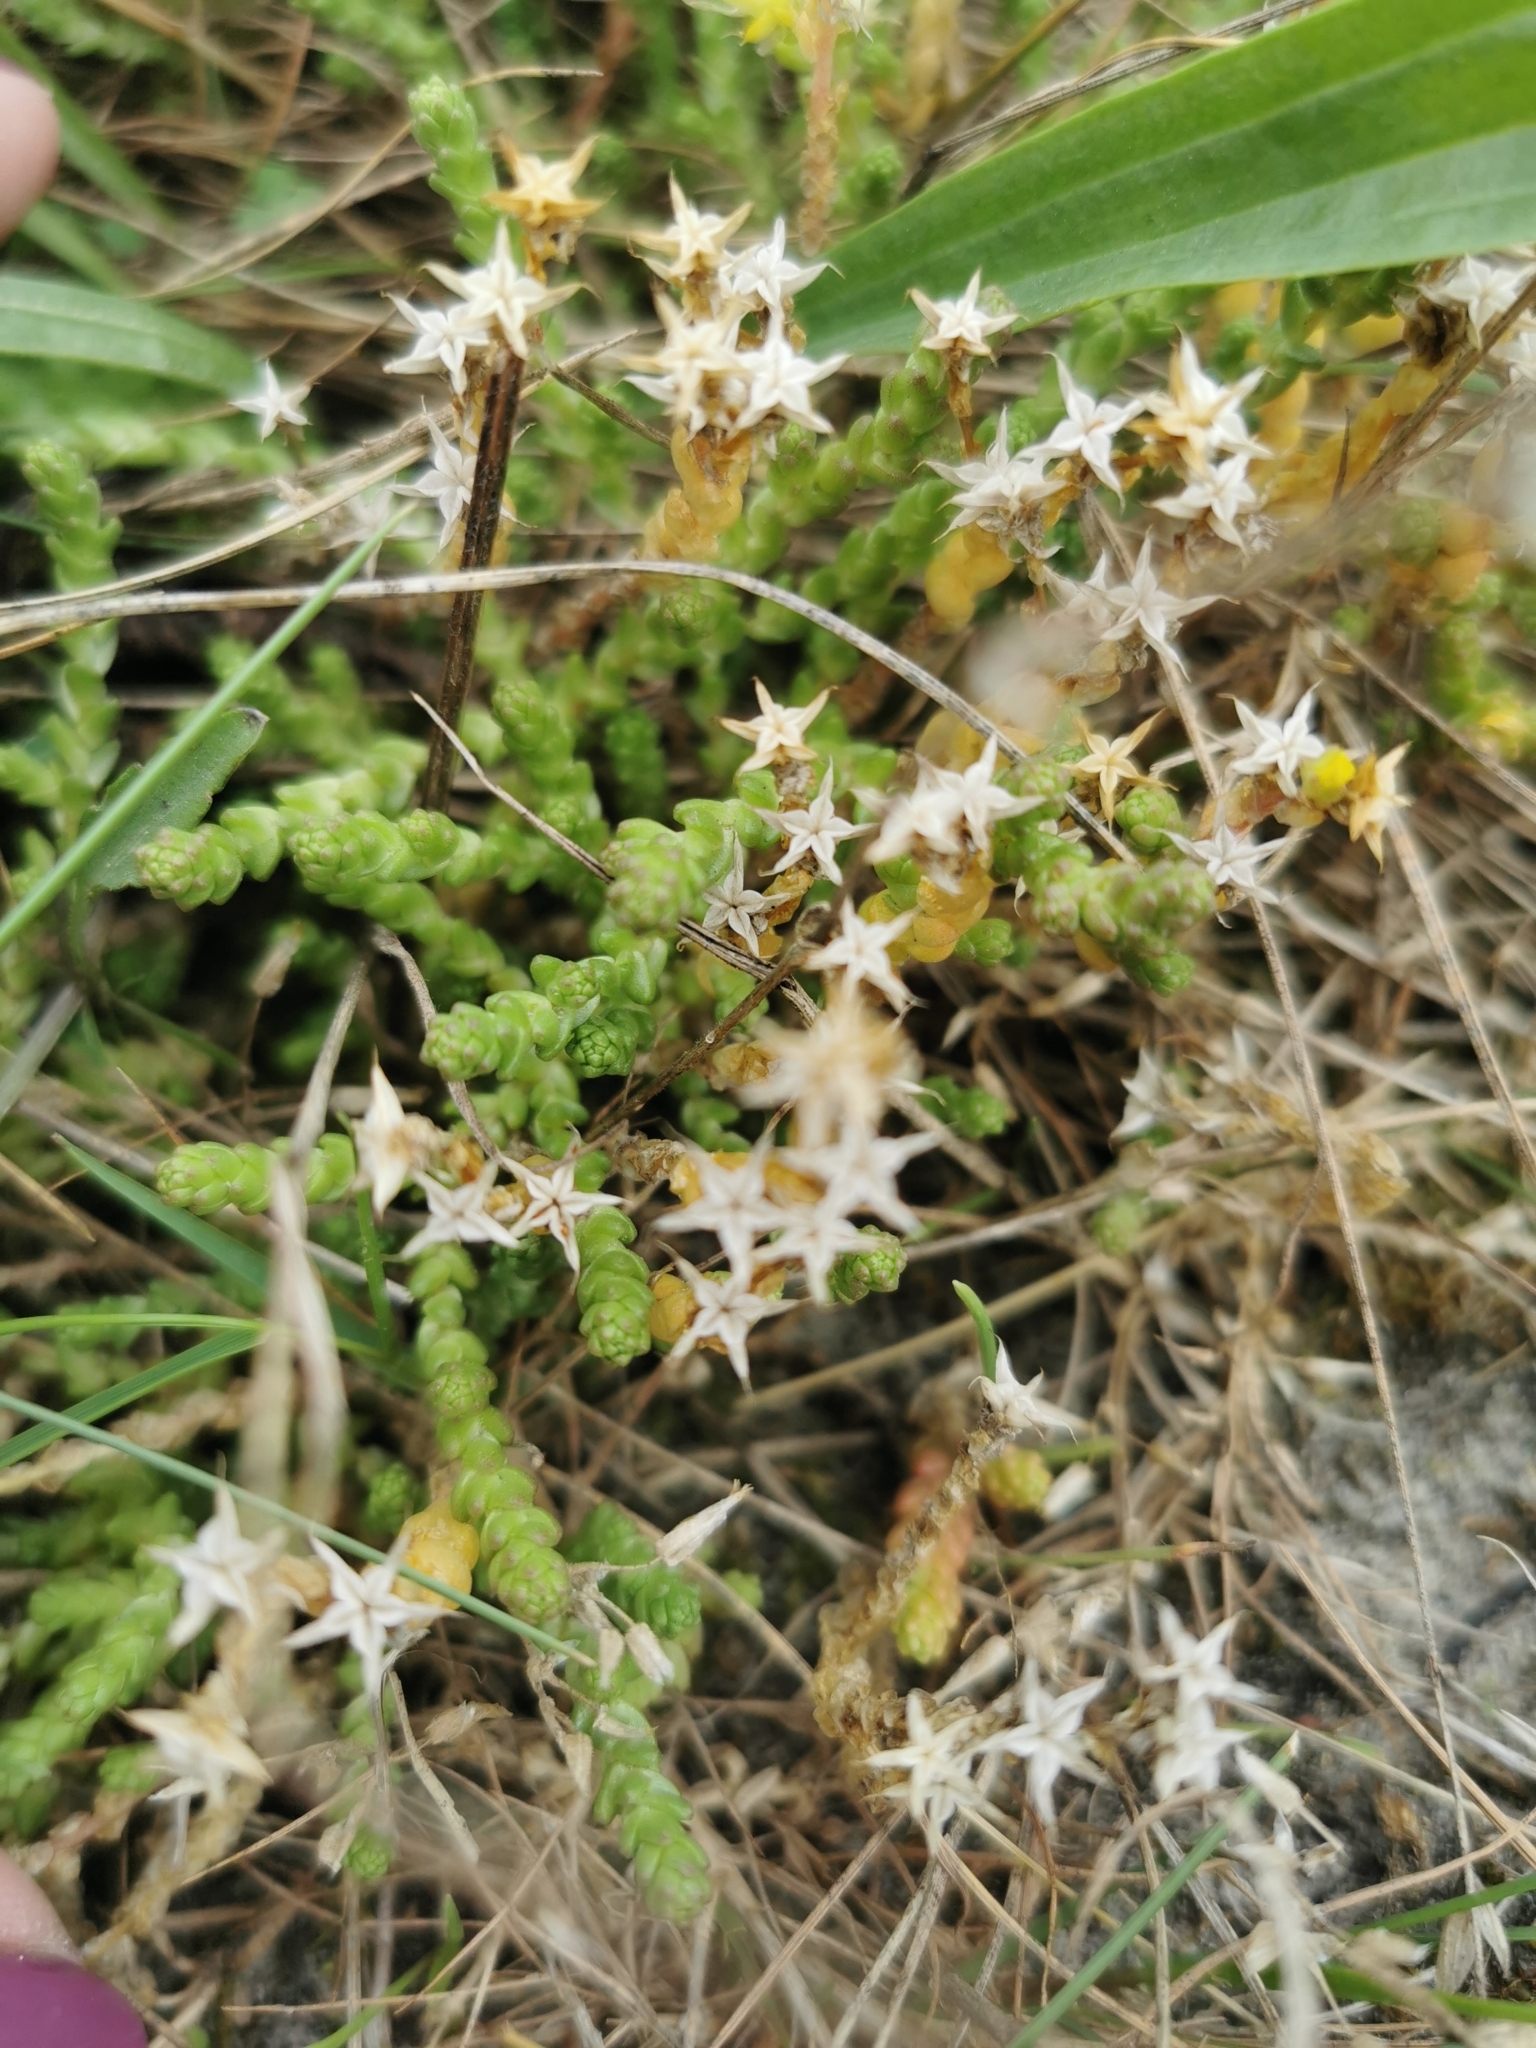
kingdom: Plantae
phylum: Tracheophyta
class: Magnoliopsida
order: Saxifragales
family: Crassulaceae
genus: Sedum
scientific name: Sedum acre
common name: Biting stonecrop
